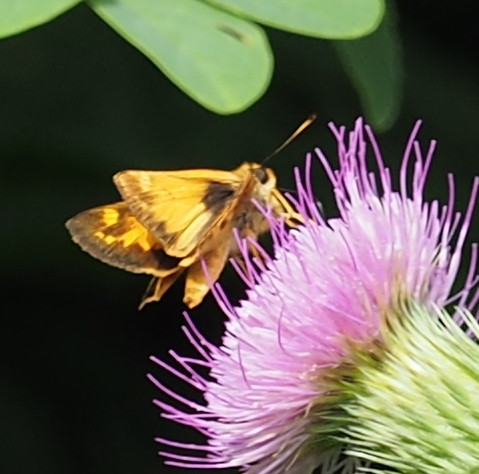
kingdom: Animalia
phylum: Arthropoda
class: Insecta
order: Lepidoptera
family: Hesperiidae
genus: Lon
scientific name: Lon zabulon
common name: Zabulon skipper
